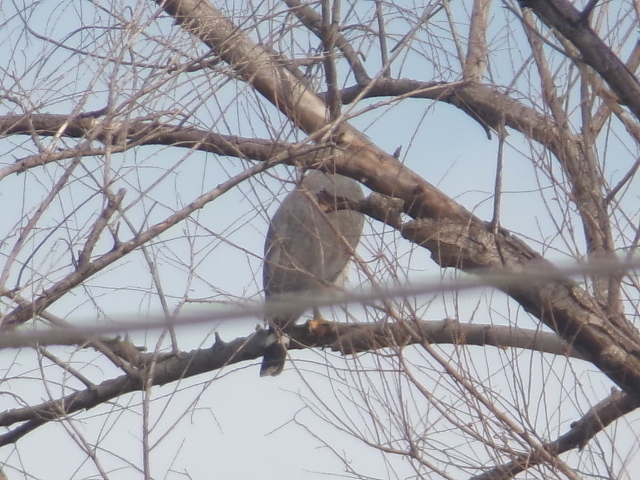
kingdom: Animalia
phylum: Chordata
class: Aves
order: Accipitriformes
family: Accipitridae
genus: Buteo
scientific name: Buteo nitidus
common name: Grey-lined hawk
